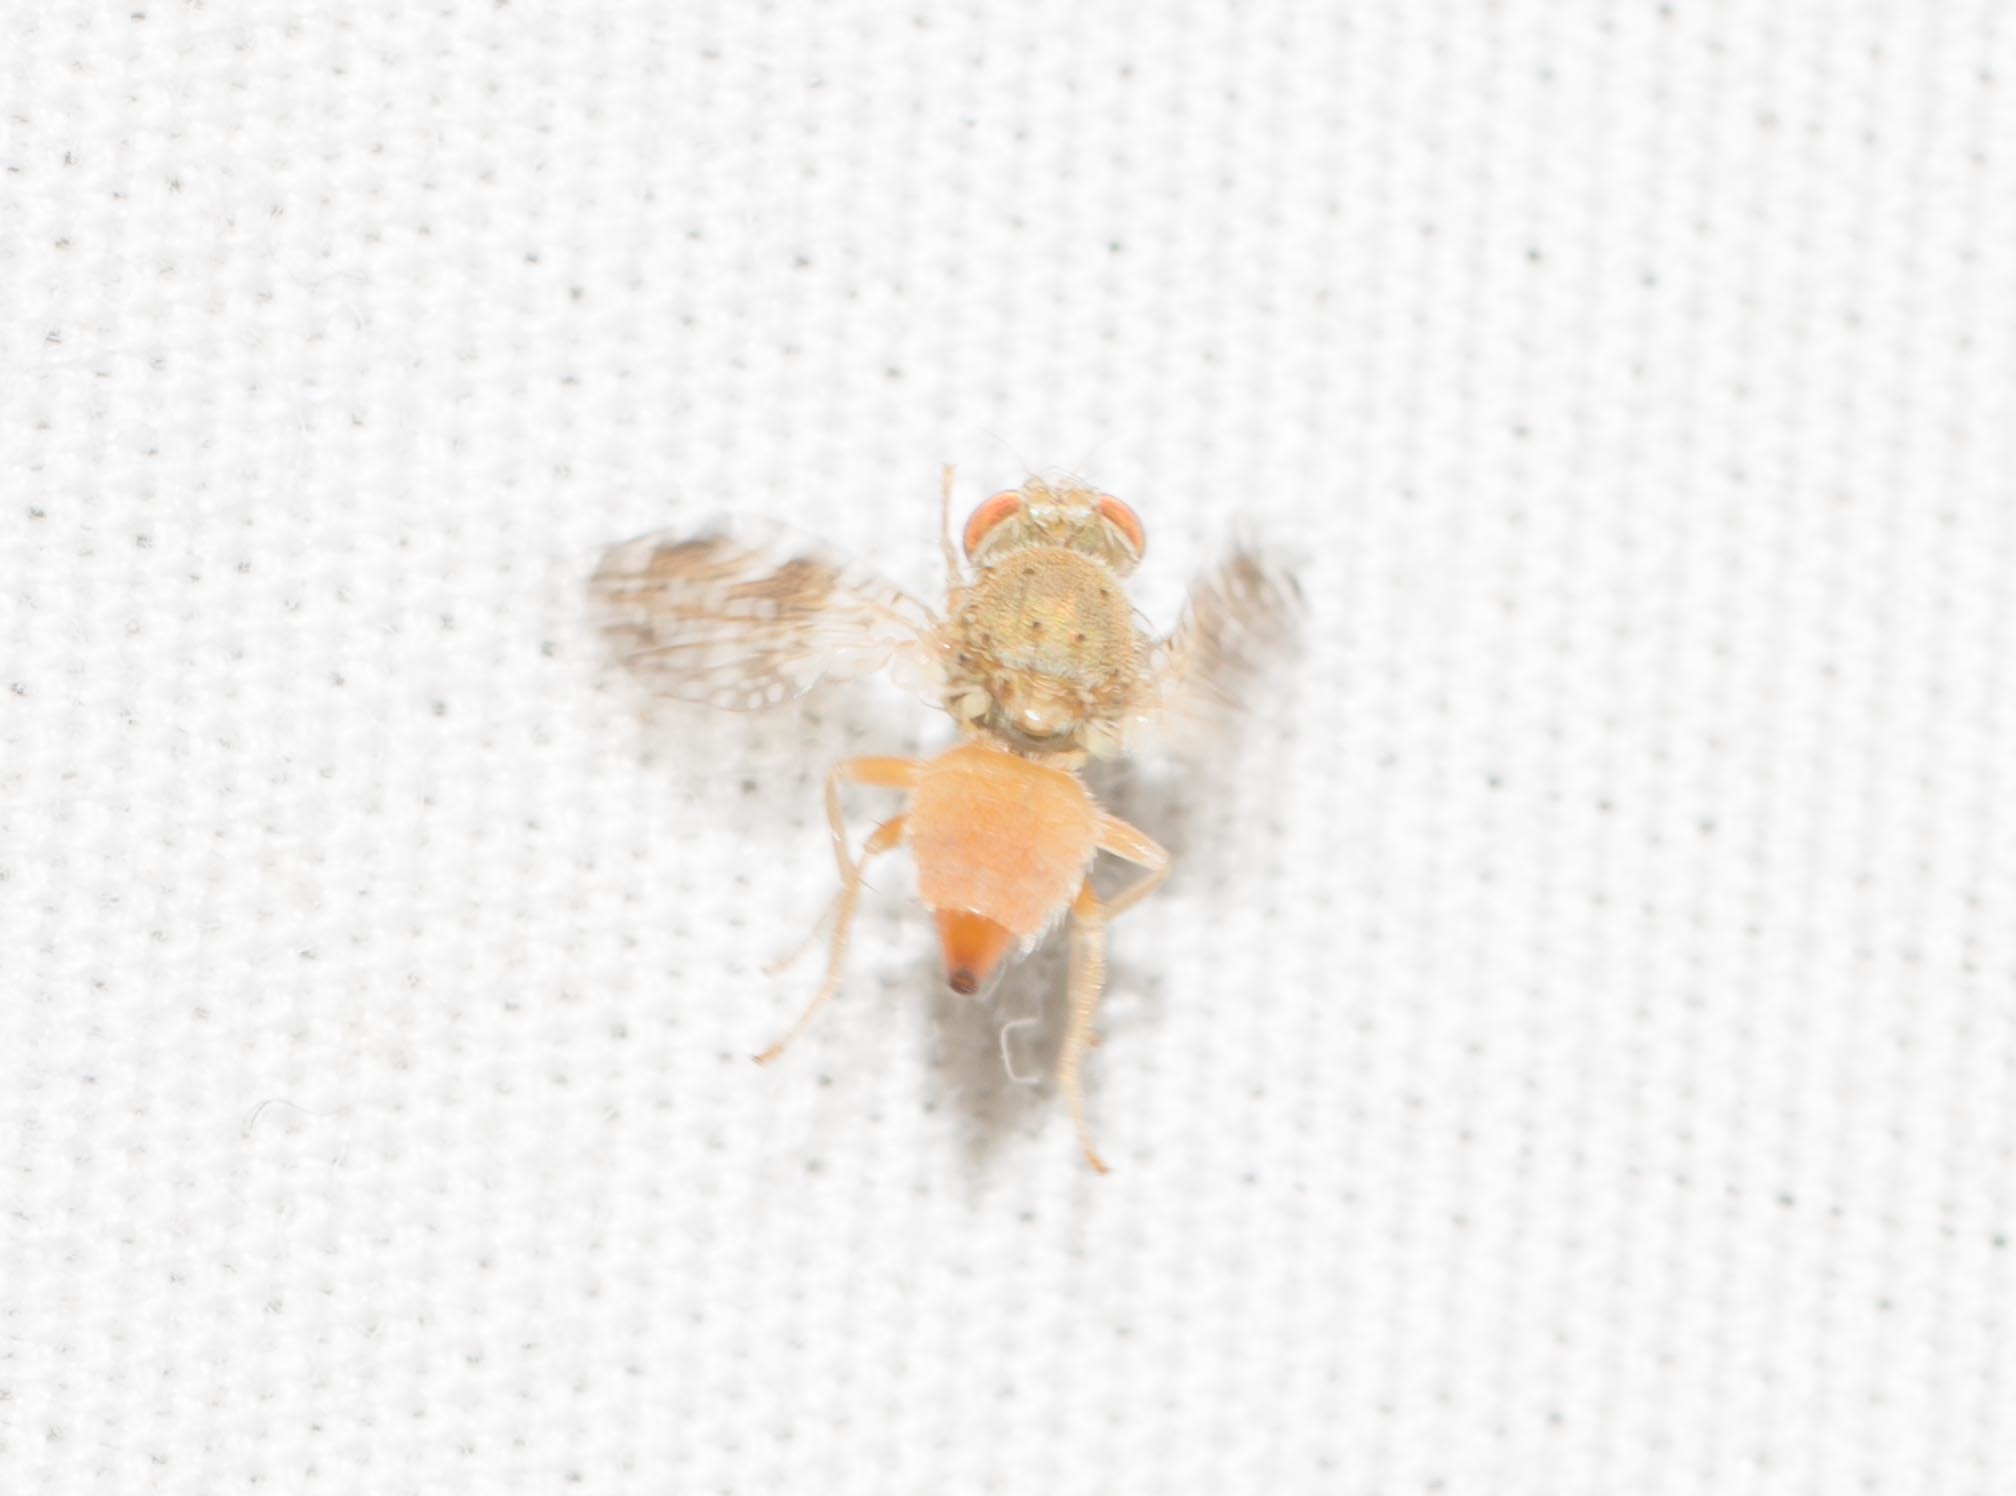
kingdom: Animalia
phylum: Arthropoda
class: Insecta
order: Diptera
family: Tephritidae
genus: Acinia
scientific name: Acinia picturata
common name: Sourbush seed fly
